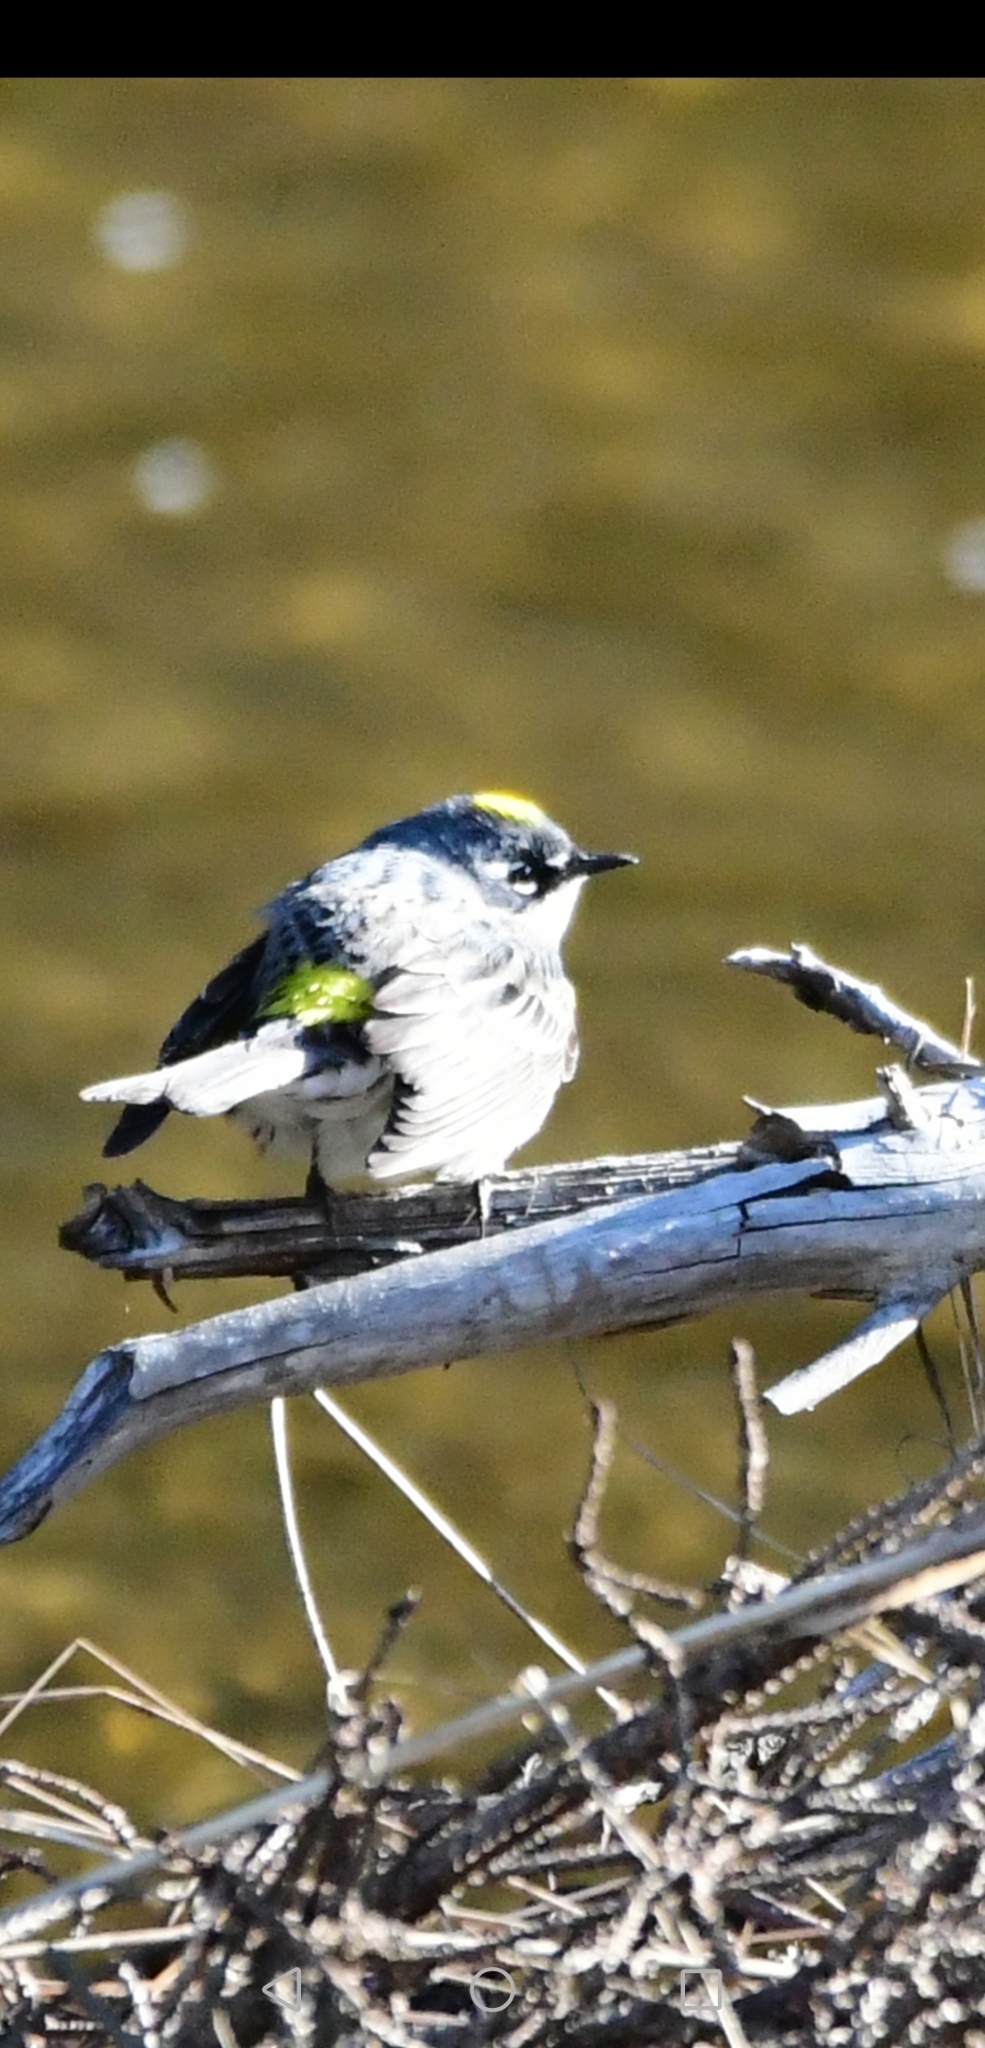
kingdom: Animalia
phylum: Chordata
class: Aves
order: Passeriformes
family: Parulidae
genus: Setophaga
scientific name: Setophaga coronata
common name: Myrtle warbler
